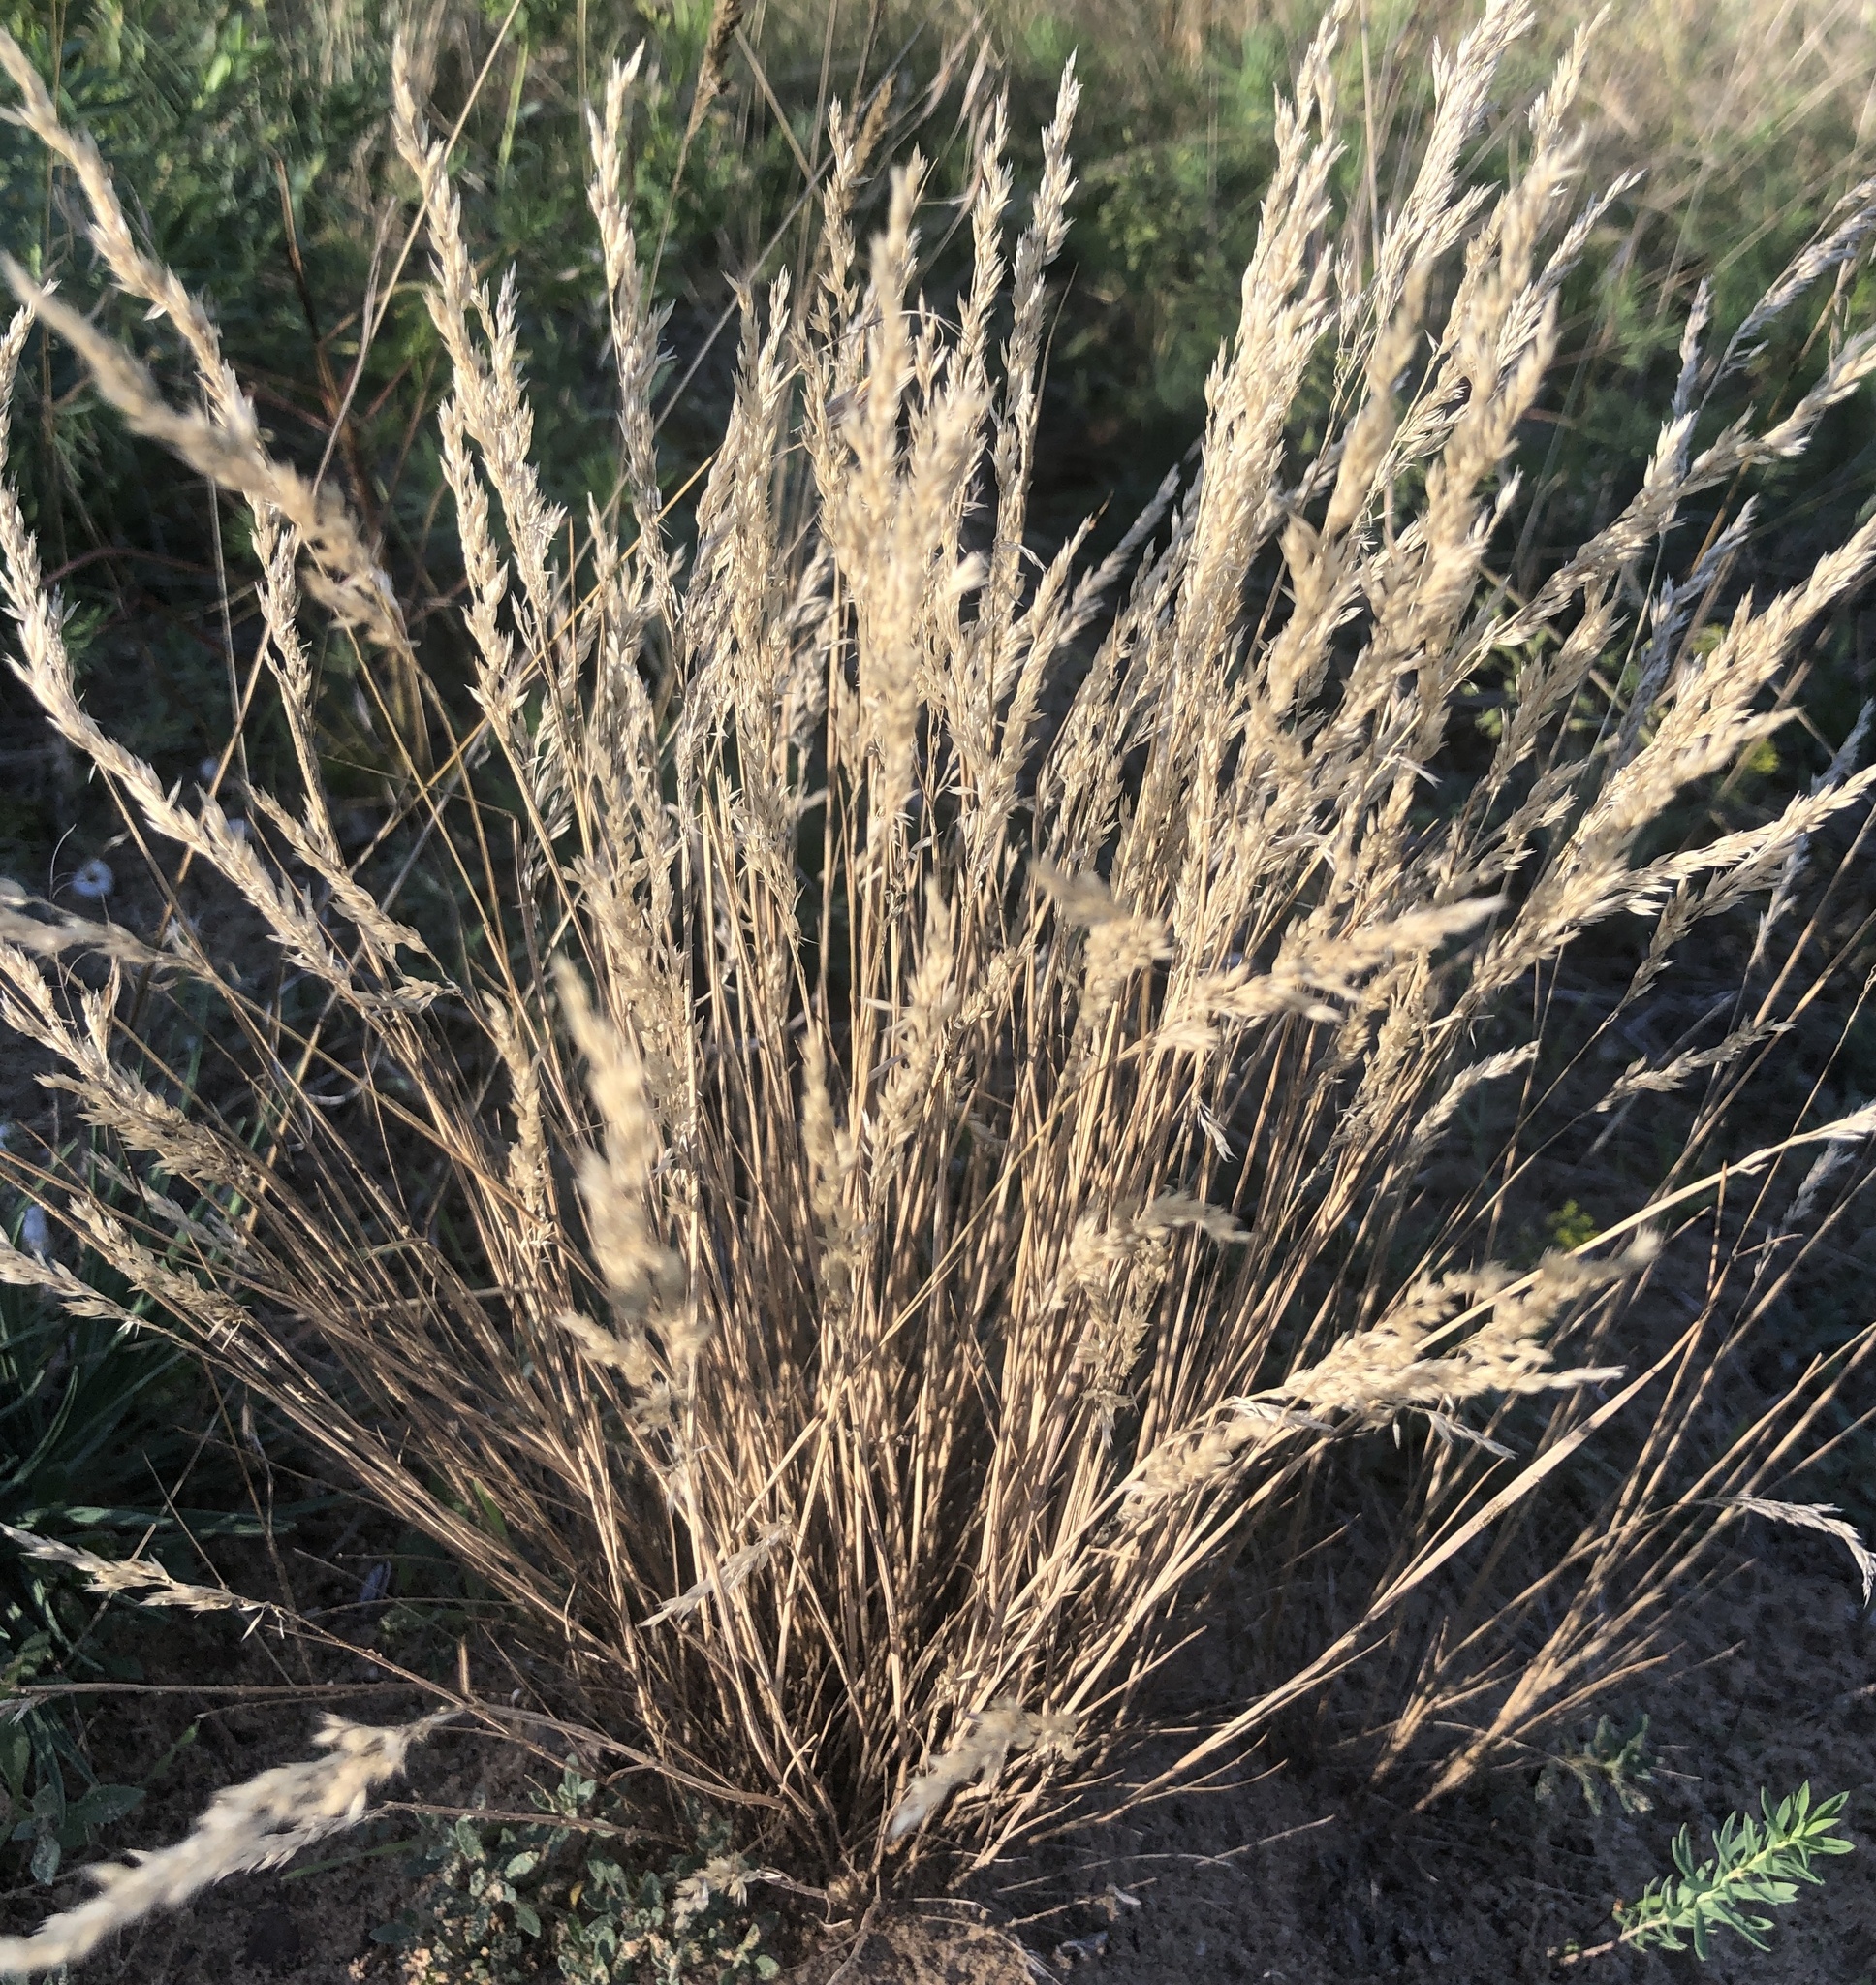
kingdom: Plantae
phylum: Tracheophyta
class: Liliopsida
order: Poales
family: Poaceae
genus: Corynephorus
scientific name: Corynephorus canescens
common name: Grey hair-grass
